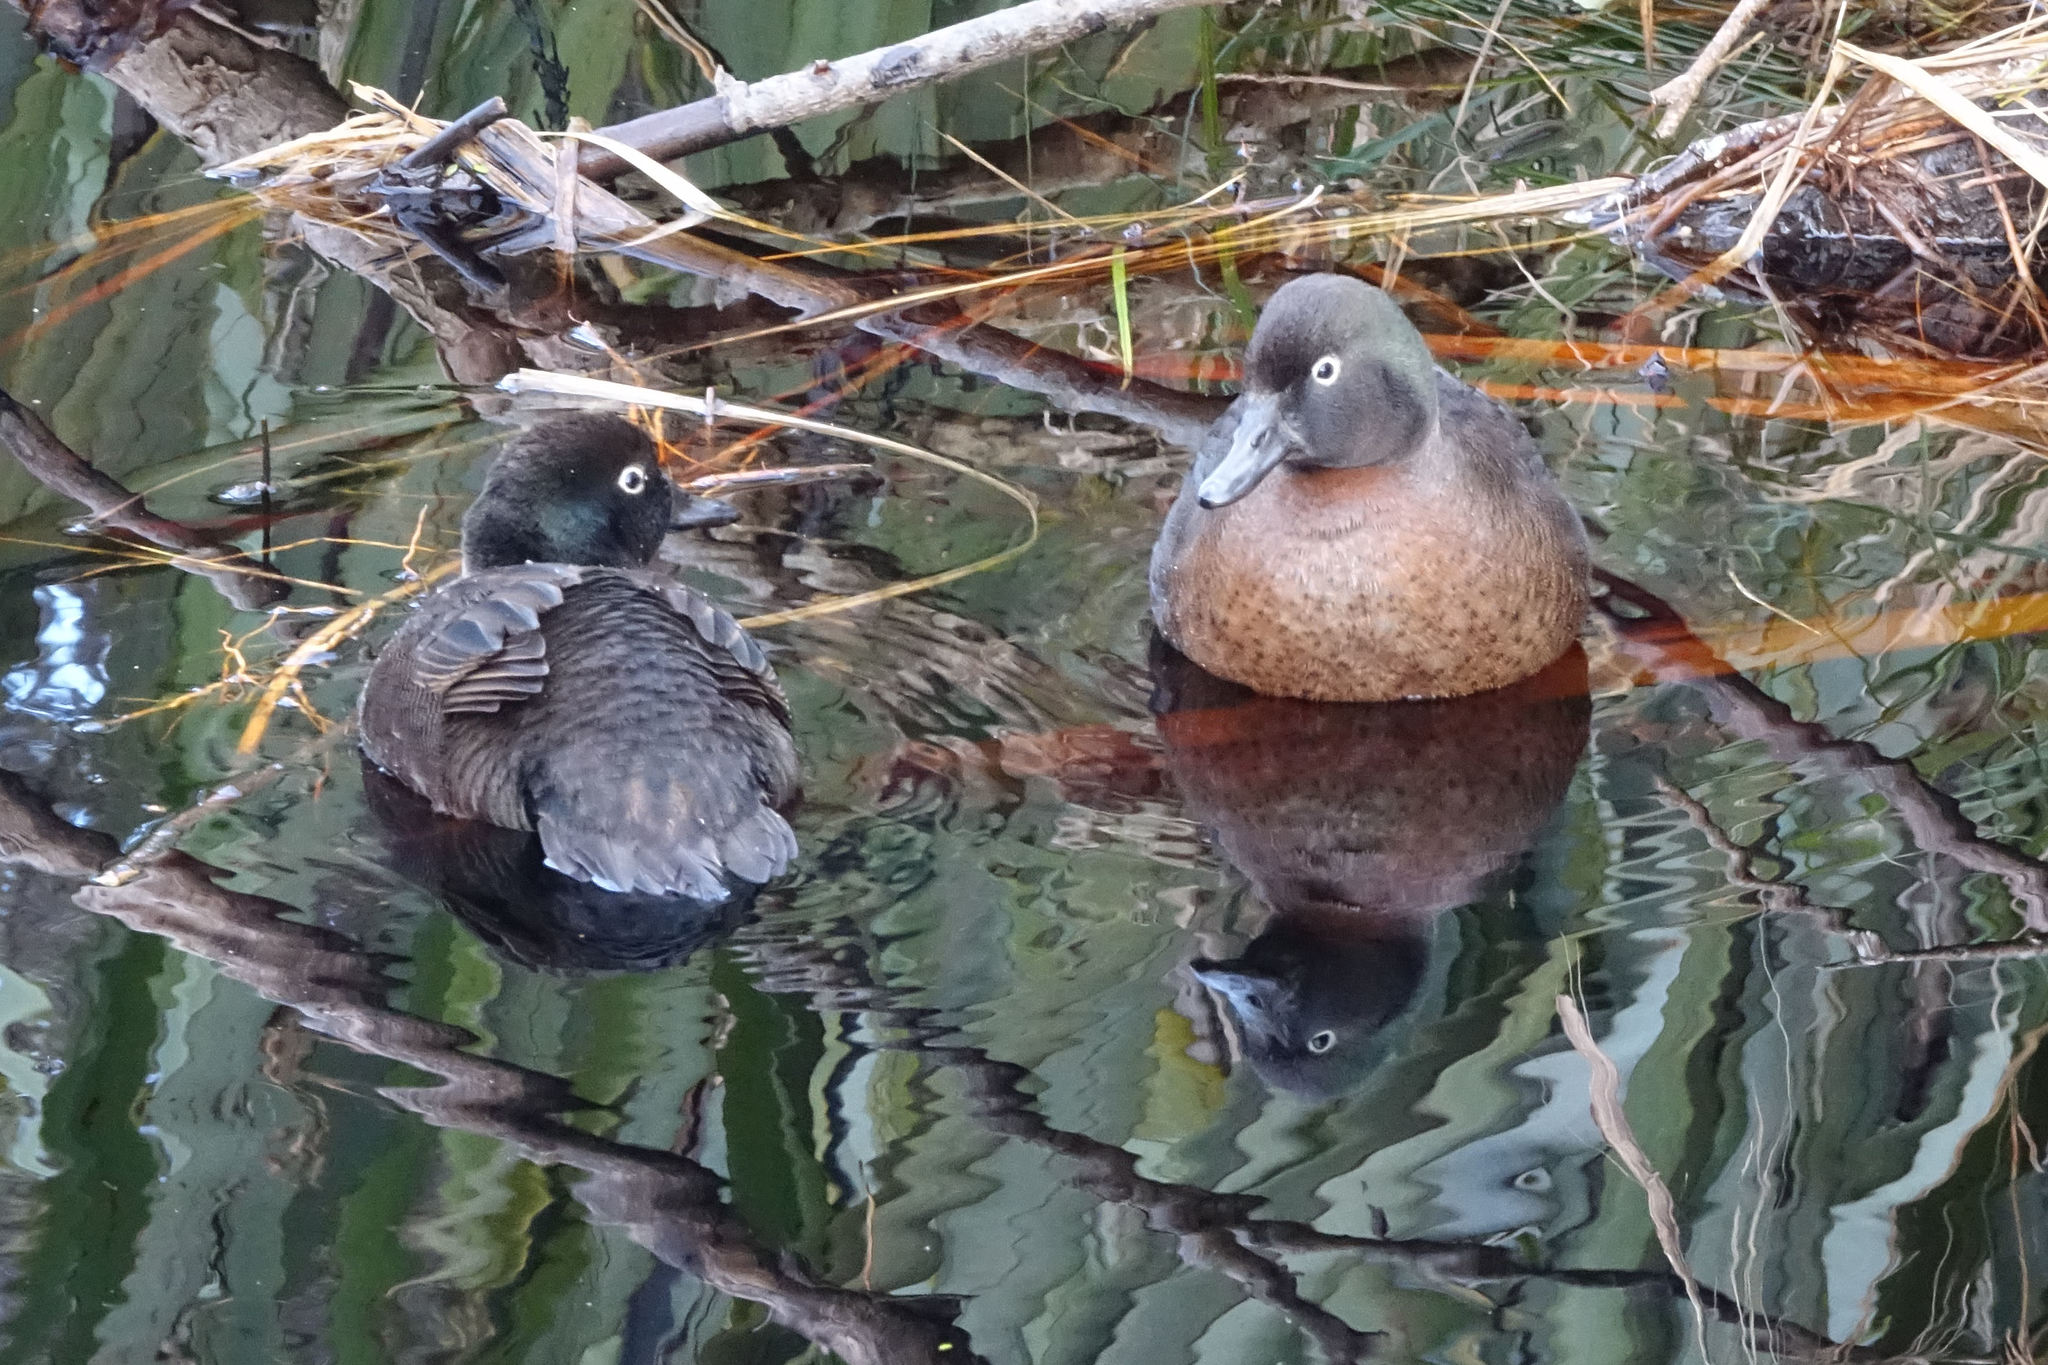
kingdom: Animalia
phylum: Chordata
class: Aves
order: Anseriformes
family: Anatidae
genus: Anas
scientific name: Anas nesiotis
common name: Campbell teal
